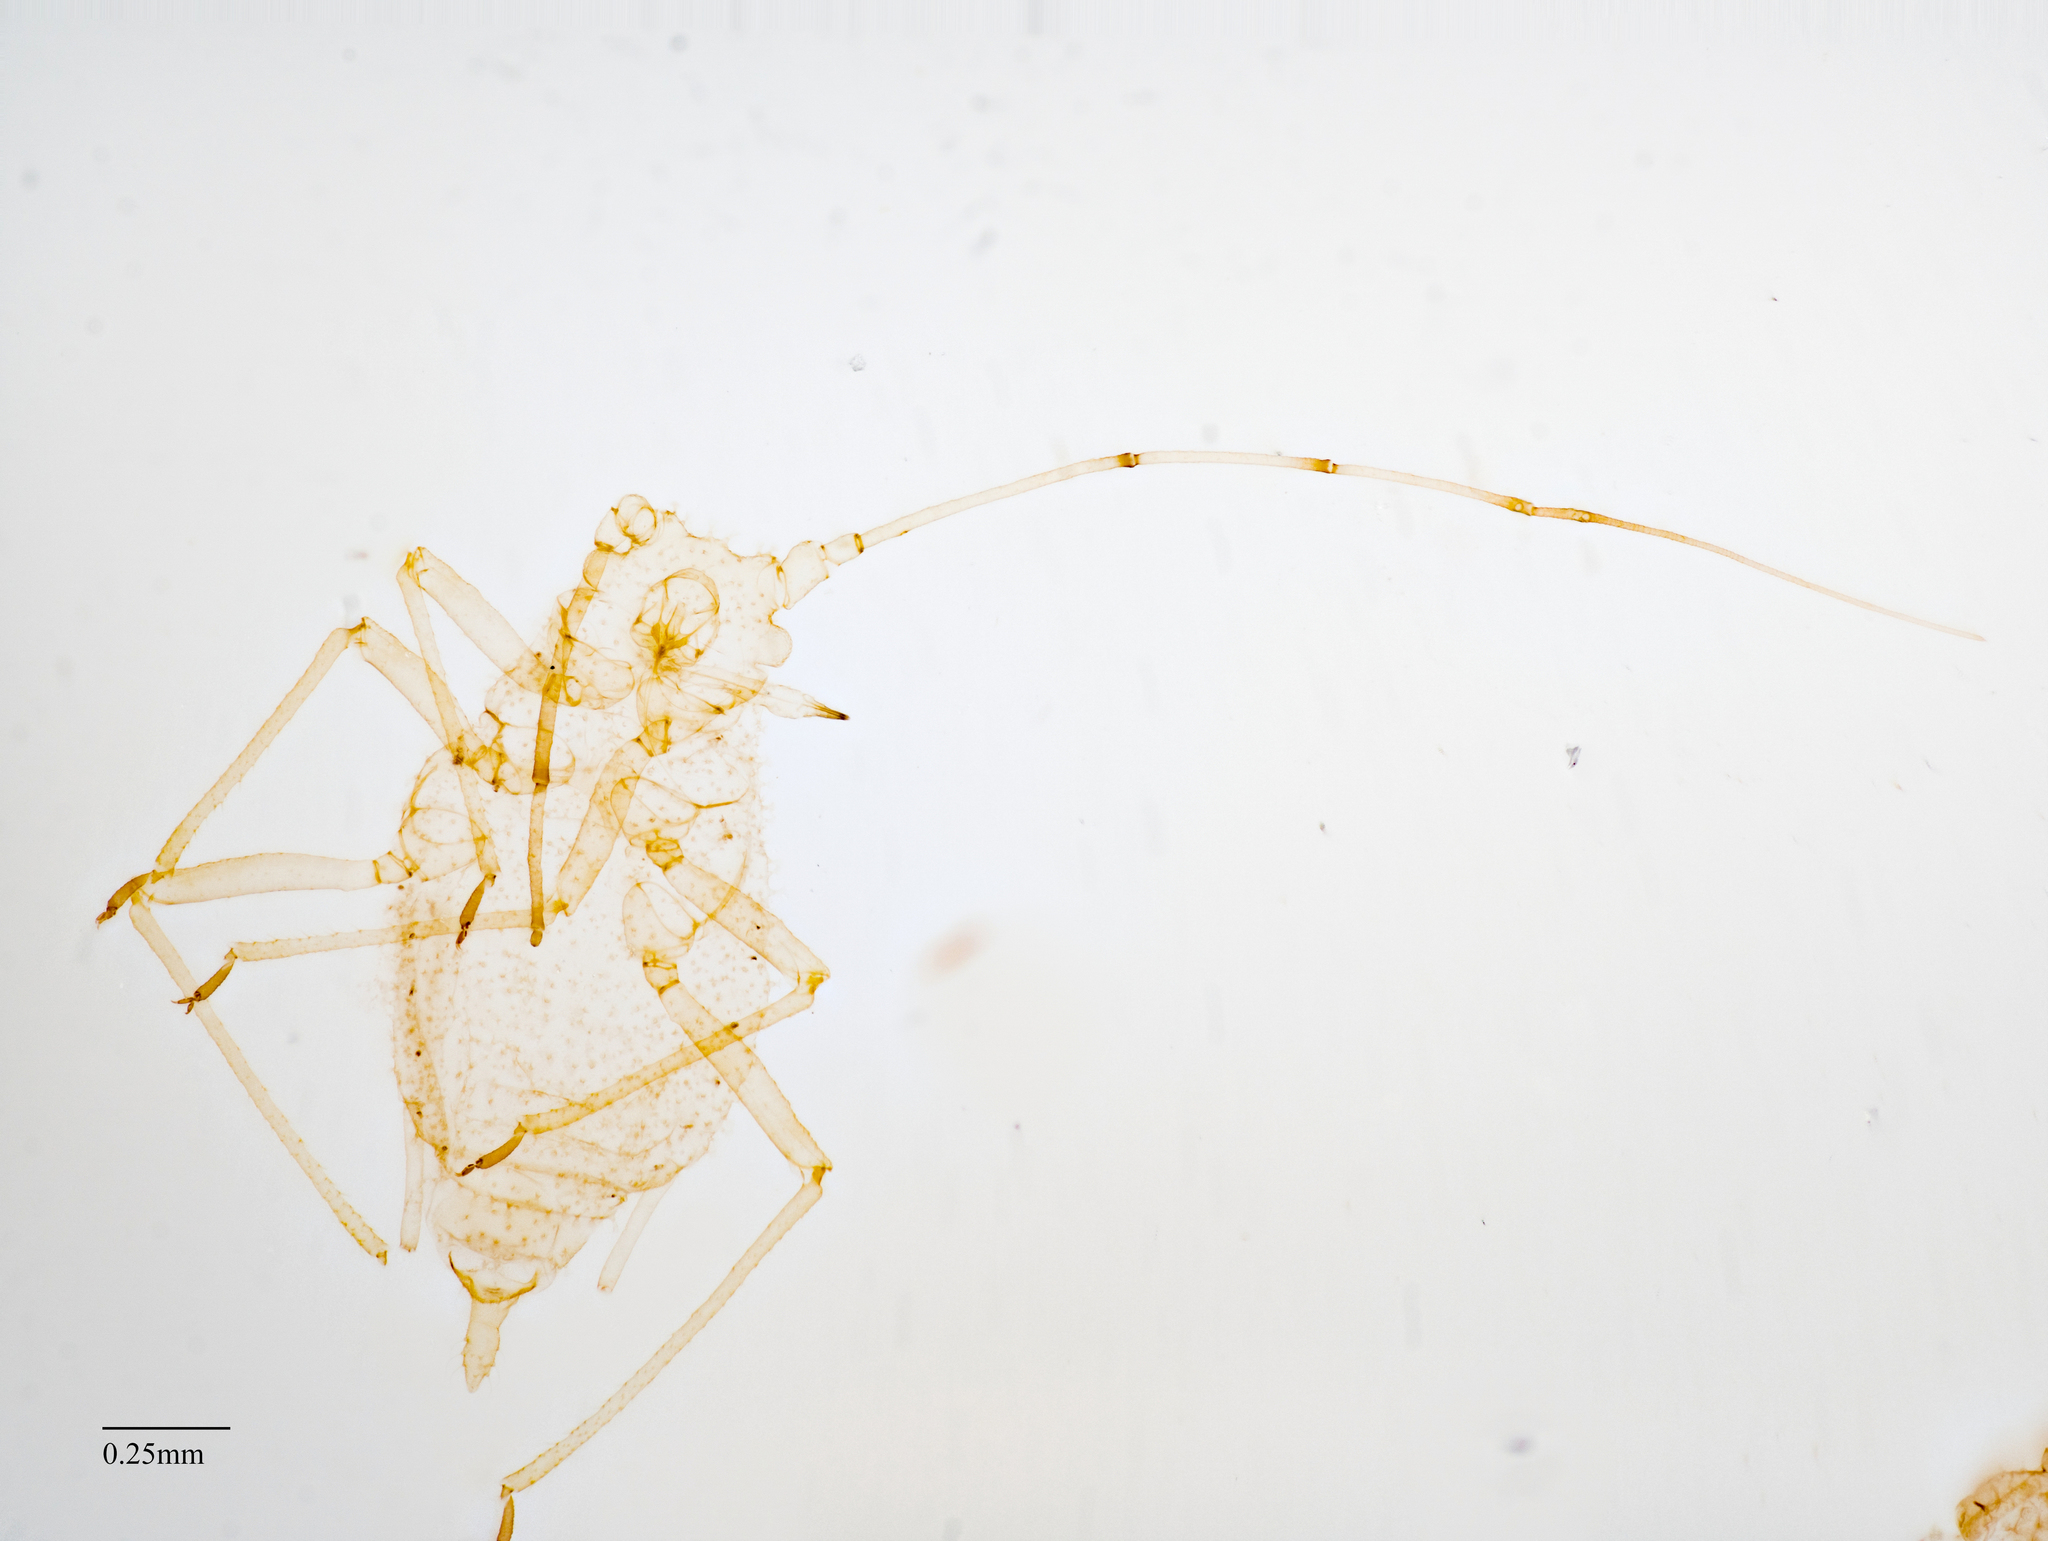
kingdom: Animalia
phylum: Arthropoda
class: Insecta
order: Hemiptera
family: Aphididae
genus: Pleotrichophorus
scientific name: Pleotrichophorus oestlundii
